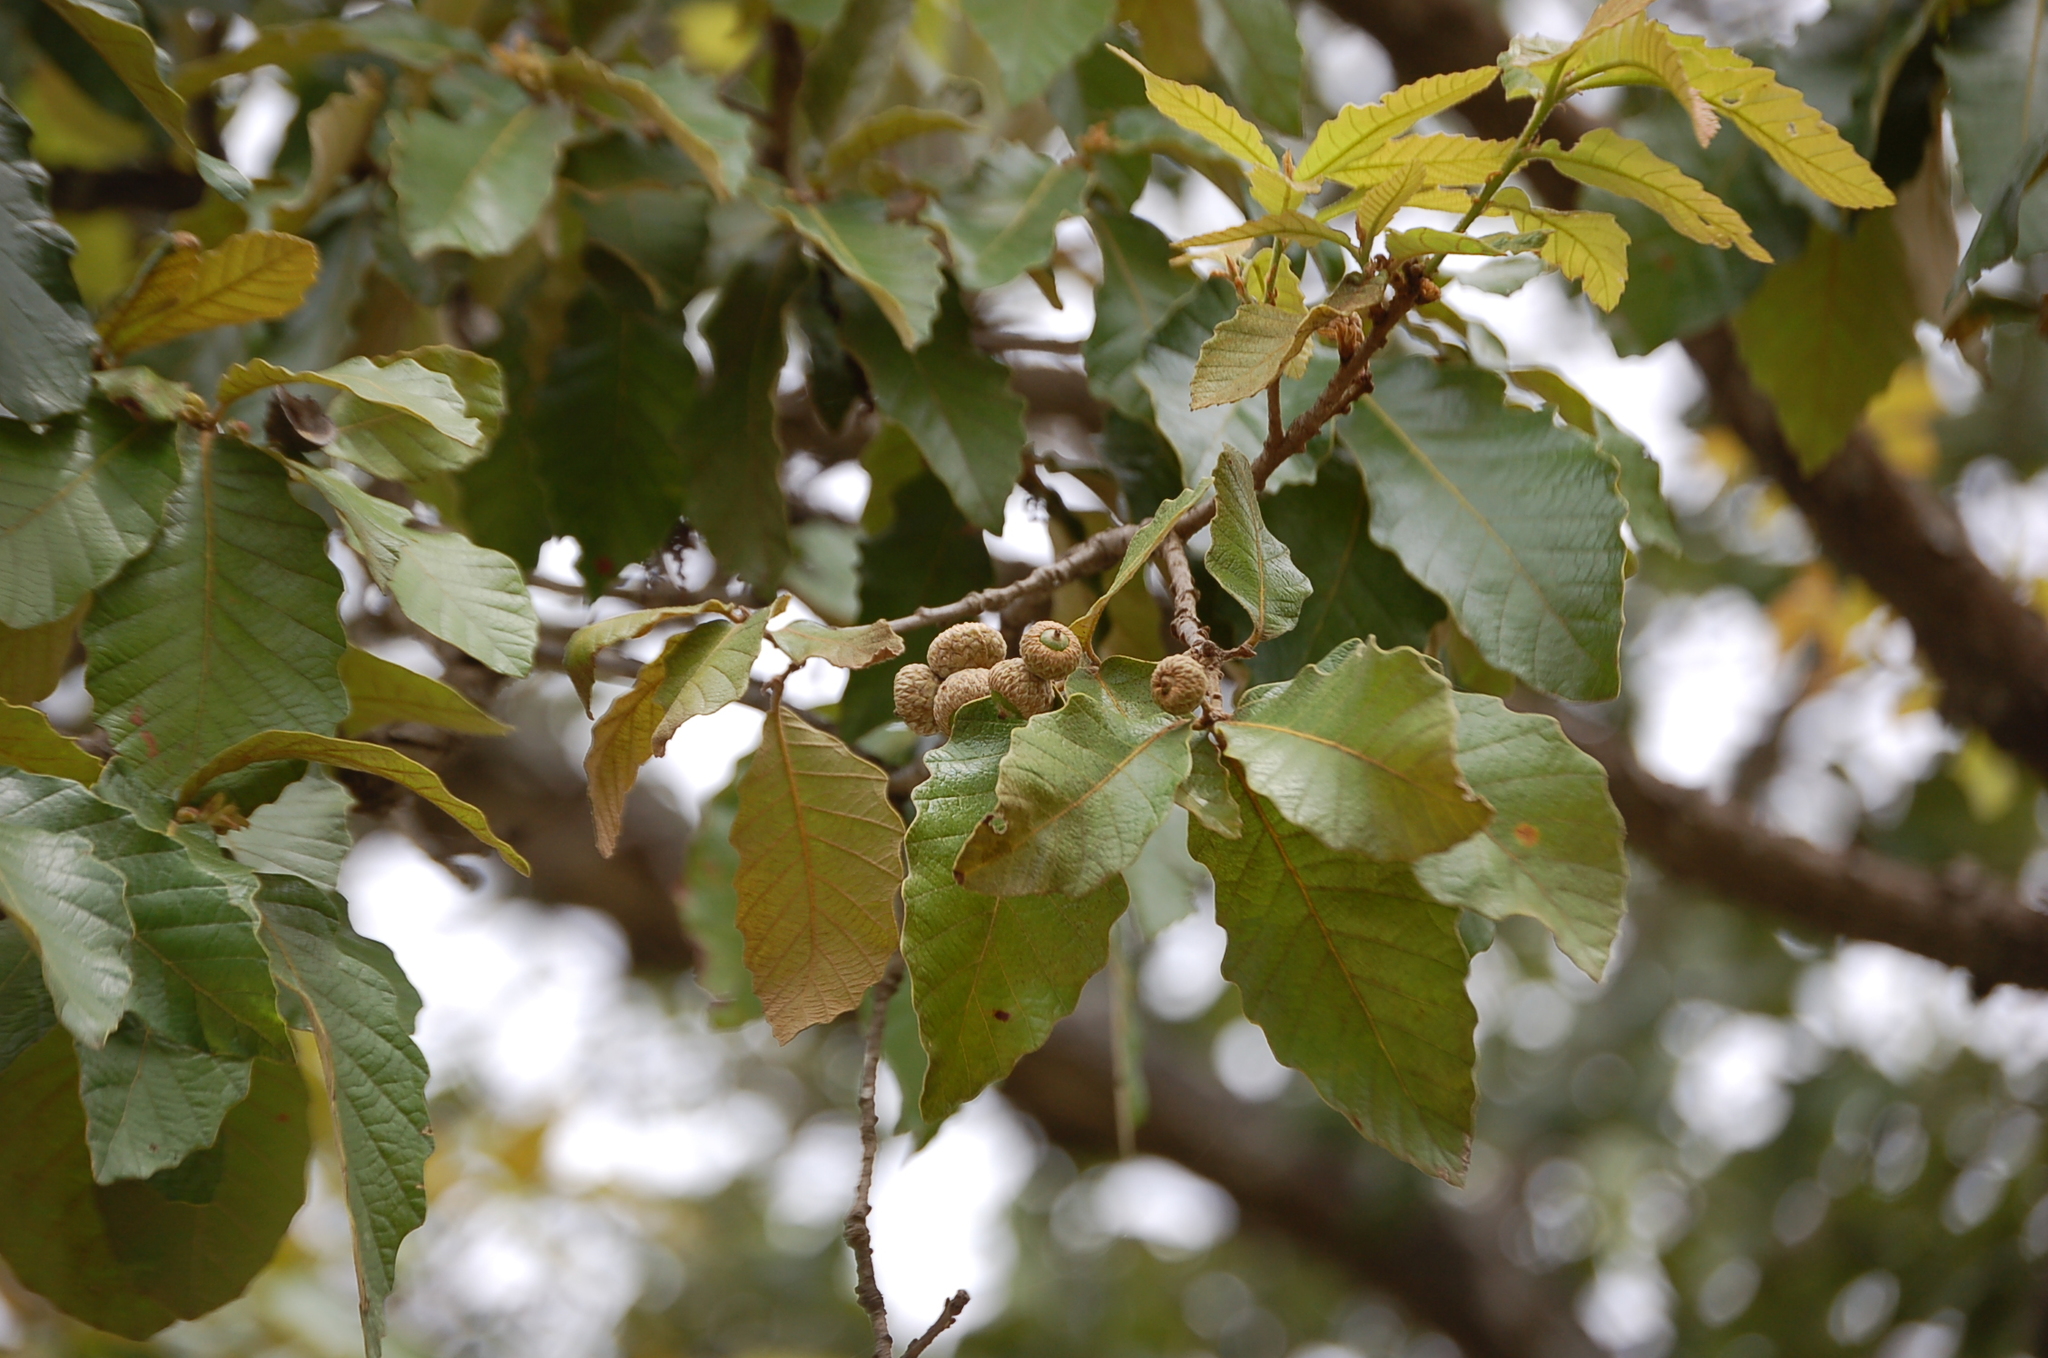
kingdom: Plantae
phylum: Tracheophyta
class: Magnoliopsida
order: Fagales
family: Fagaceae
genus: Quercus
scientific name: Quercus purulhana
